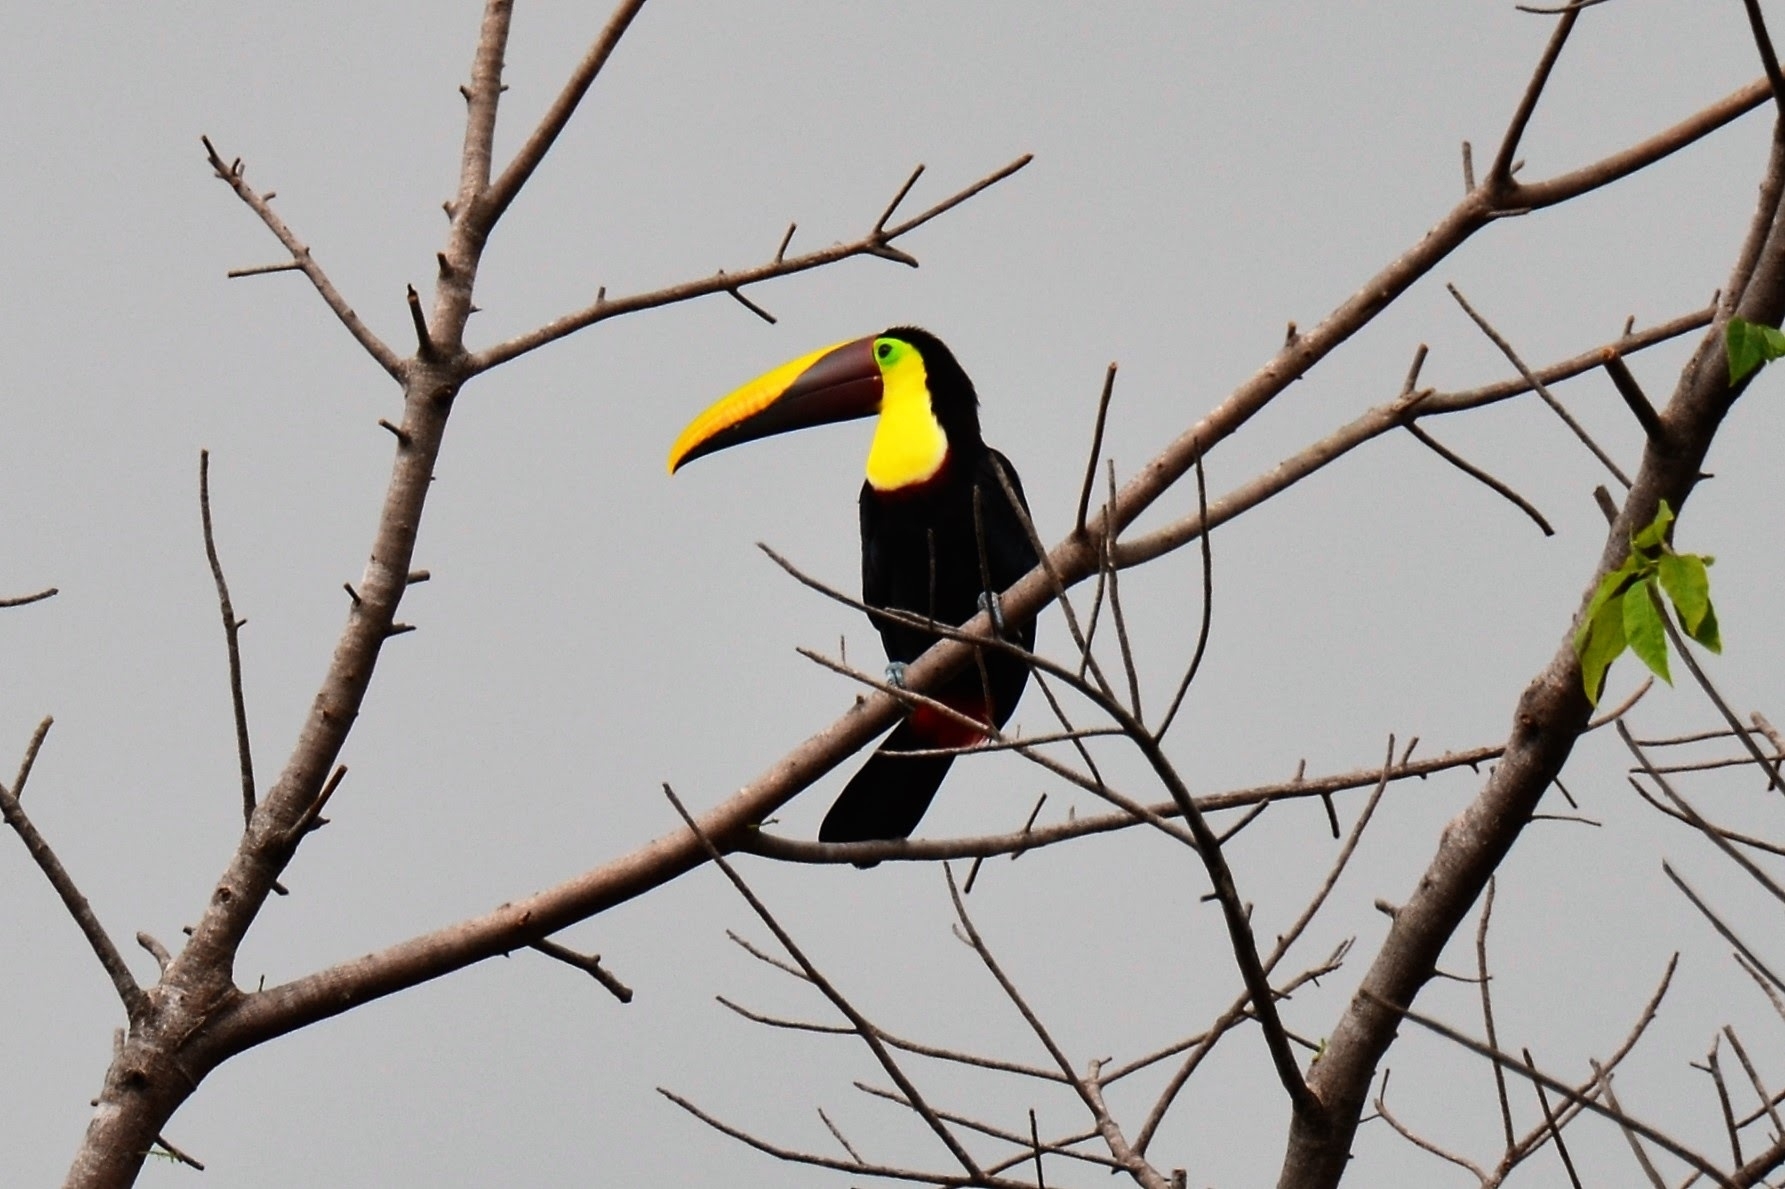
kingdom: Animalia
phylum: Chordata
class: Aves
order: Piciformes
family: Ramphastidae
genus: Ramphastos
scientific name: Ramphastos ambiguus
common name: Yellow-throated toucan
